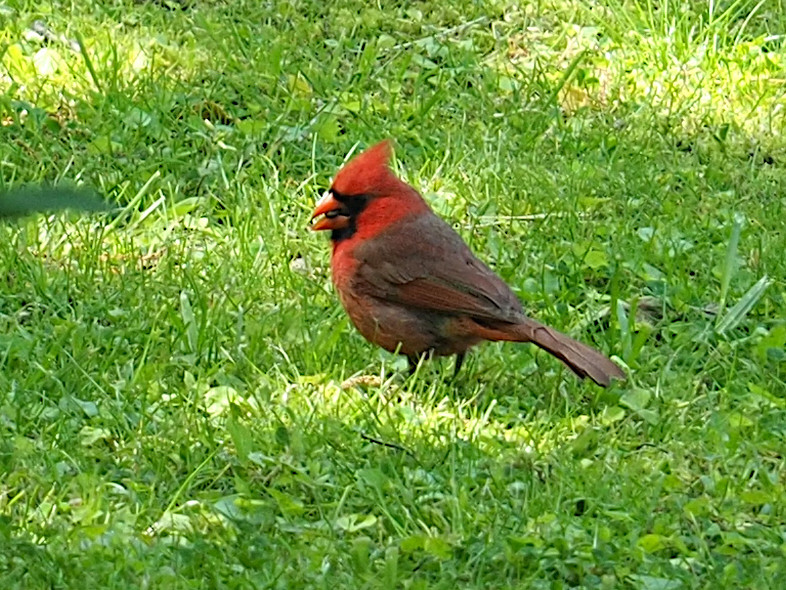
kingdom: Animalia
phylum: Chordata
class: Aves
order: Passeriformes
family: Cardinalidae
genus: Cardinalis
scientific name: Cardinalis cardinalis
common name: Northern cardinal
